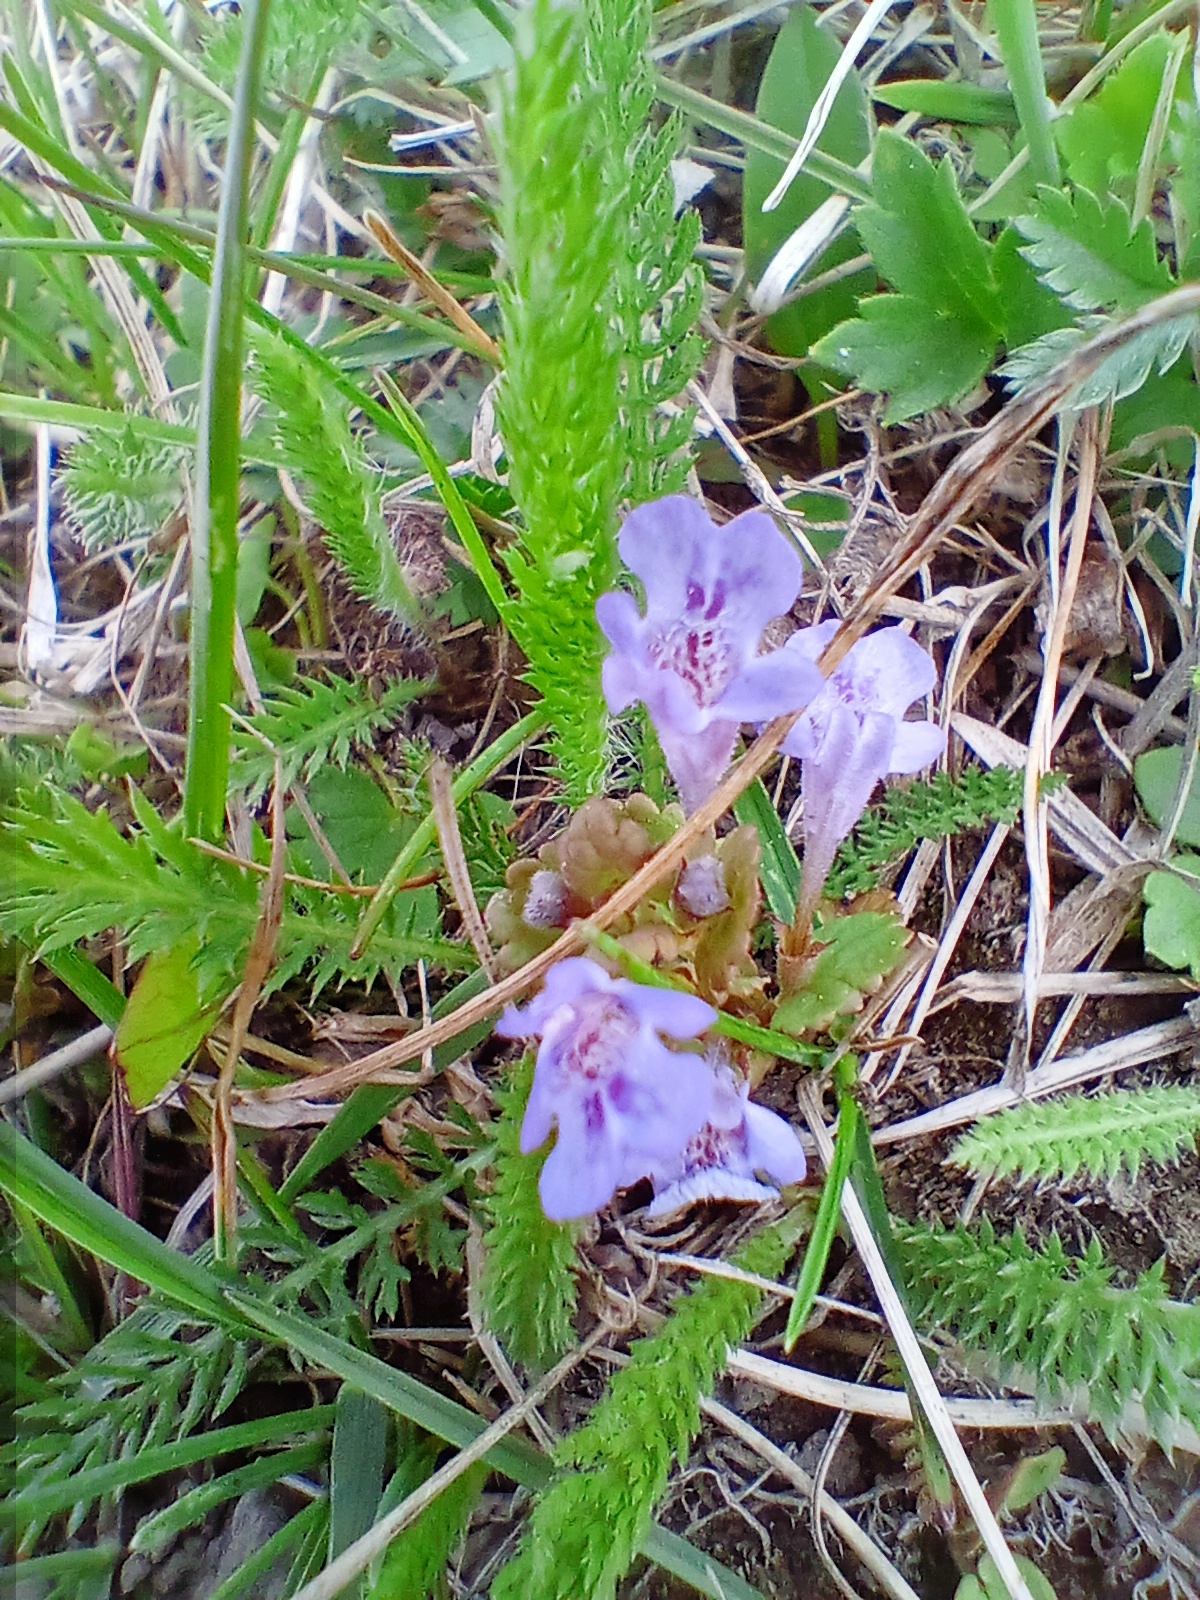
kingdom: Plantae
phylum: Tracheophyta
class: Magnoliopsida
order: Lamiales
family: Lamiaceae
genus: Glechoma
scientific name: Glechoma hederacea
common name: Ground ivy
